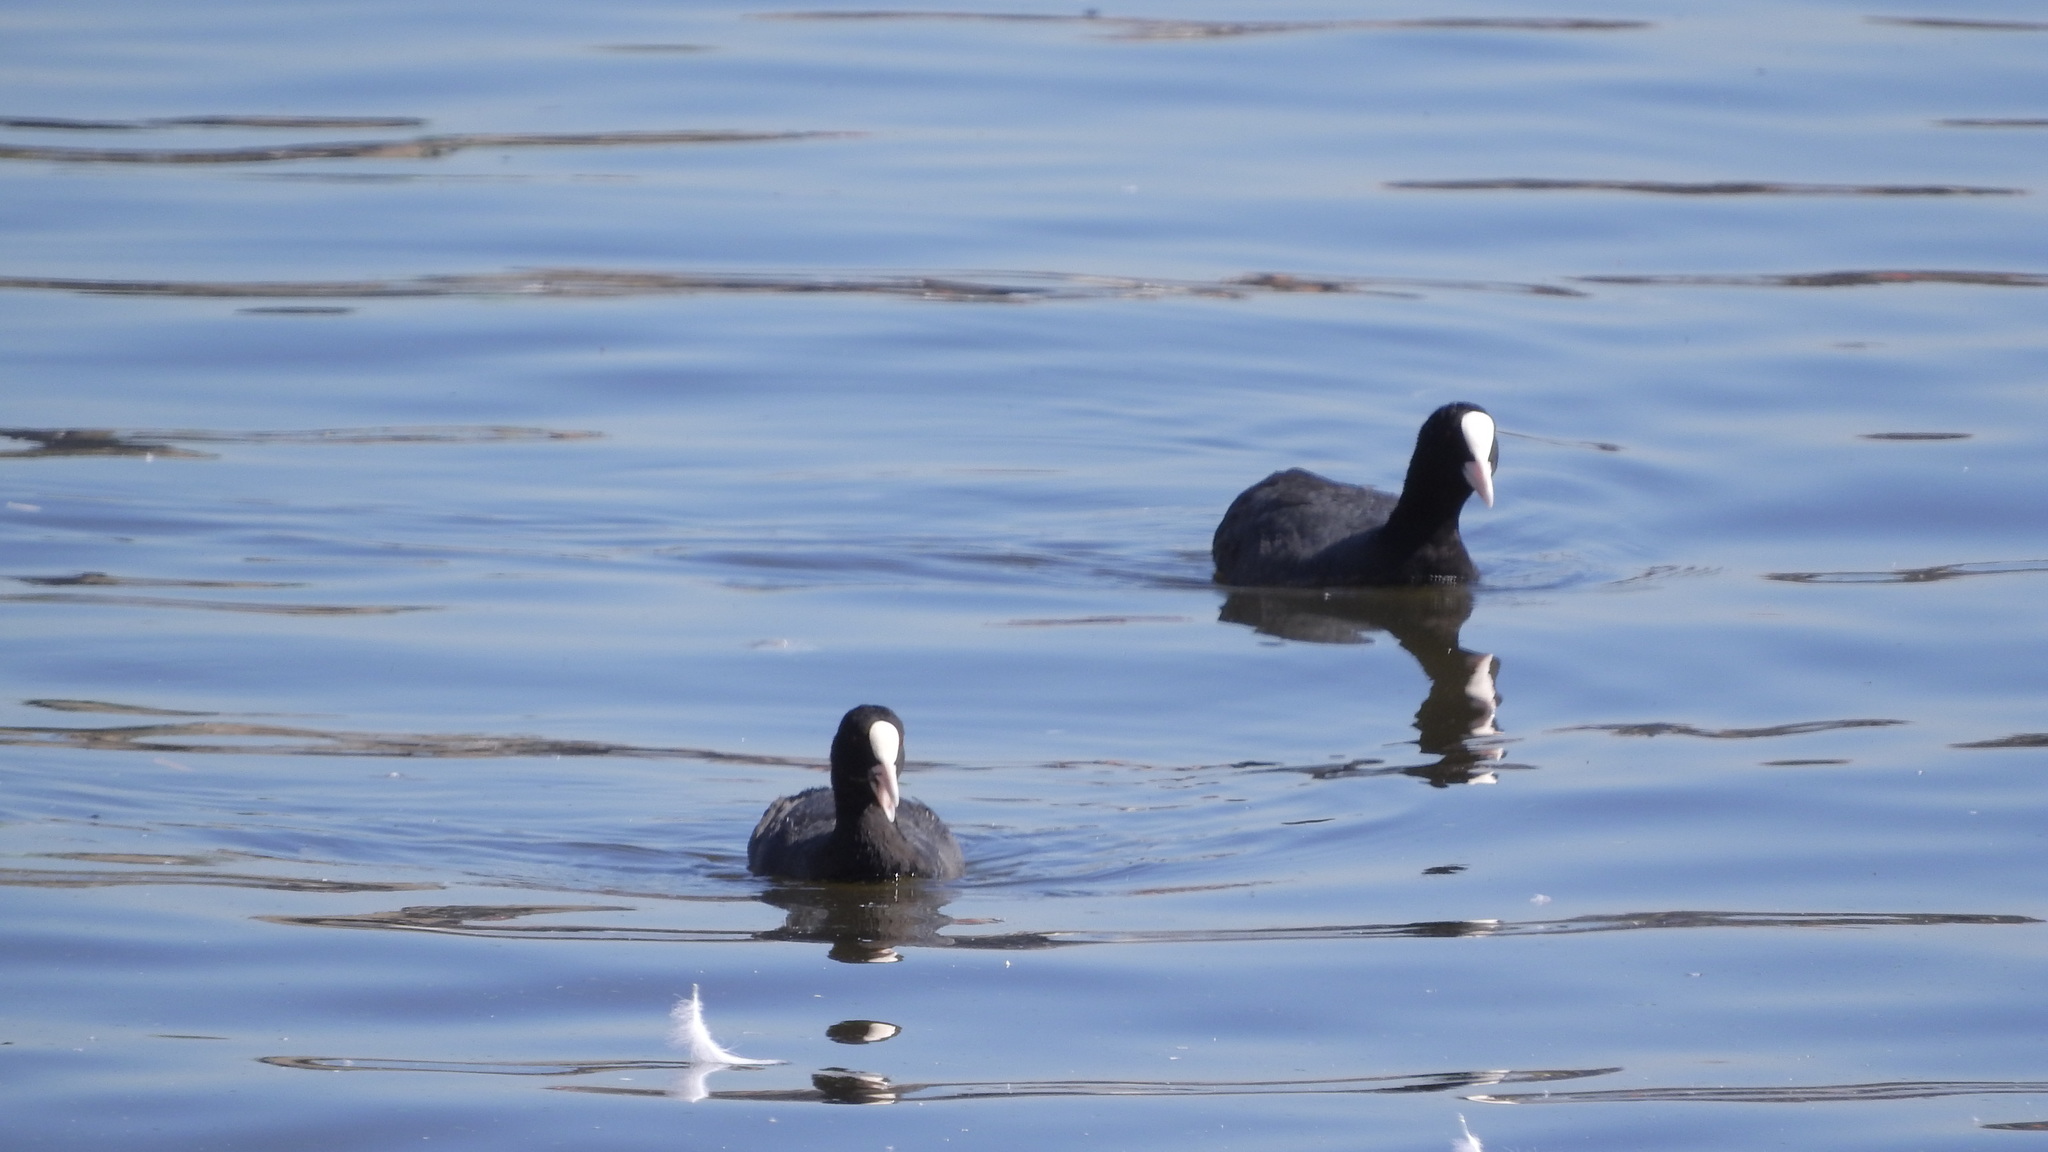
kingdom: Animalia
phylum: Chordata
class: Aves
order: Gruiformes
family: Rallidae
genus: Fulica
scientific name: Fulica atra
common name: Eurasian coot
